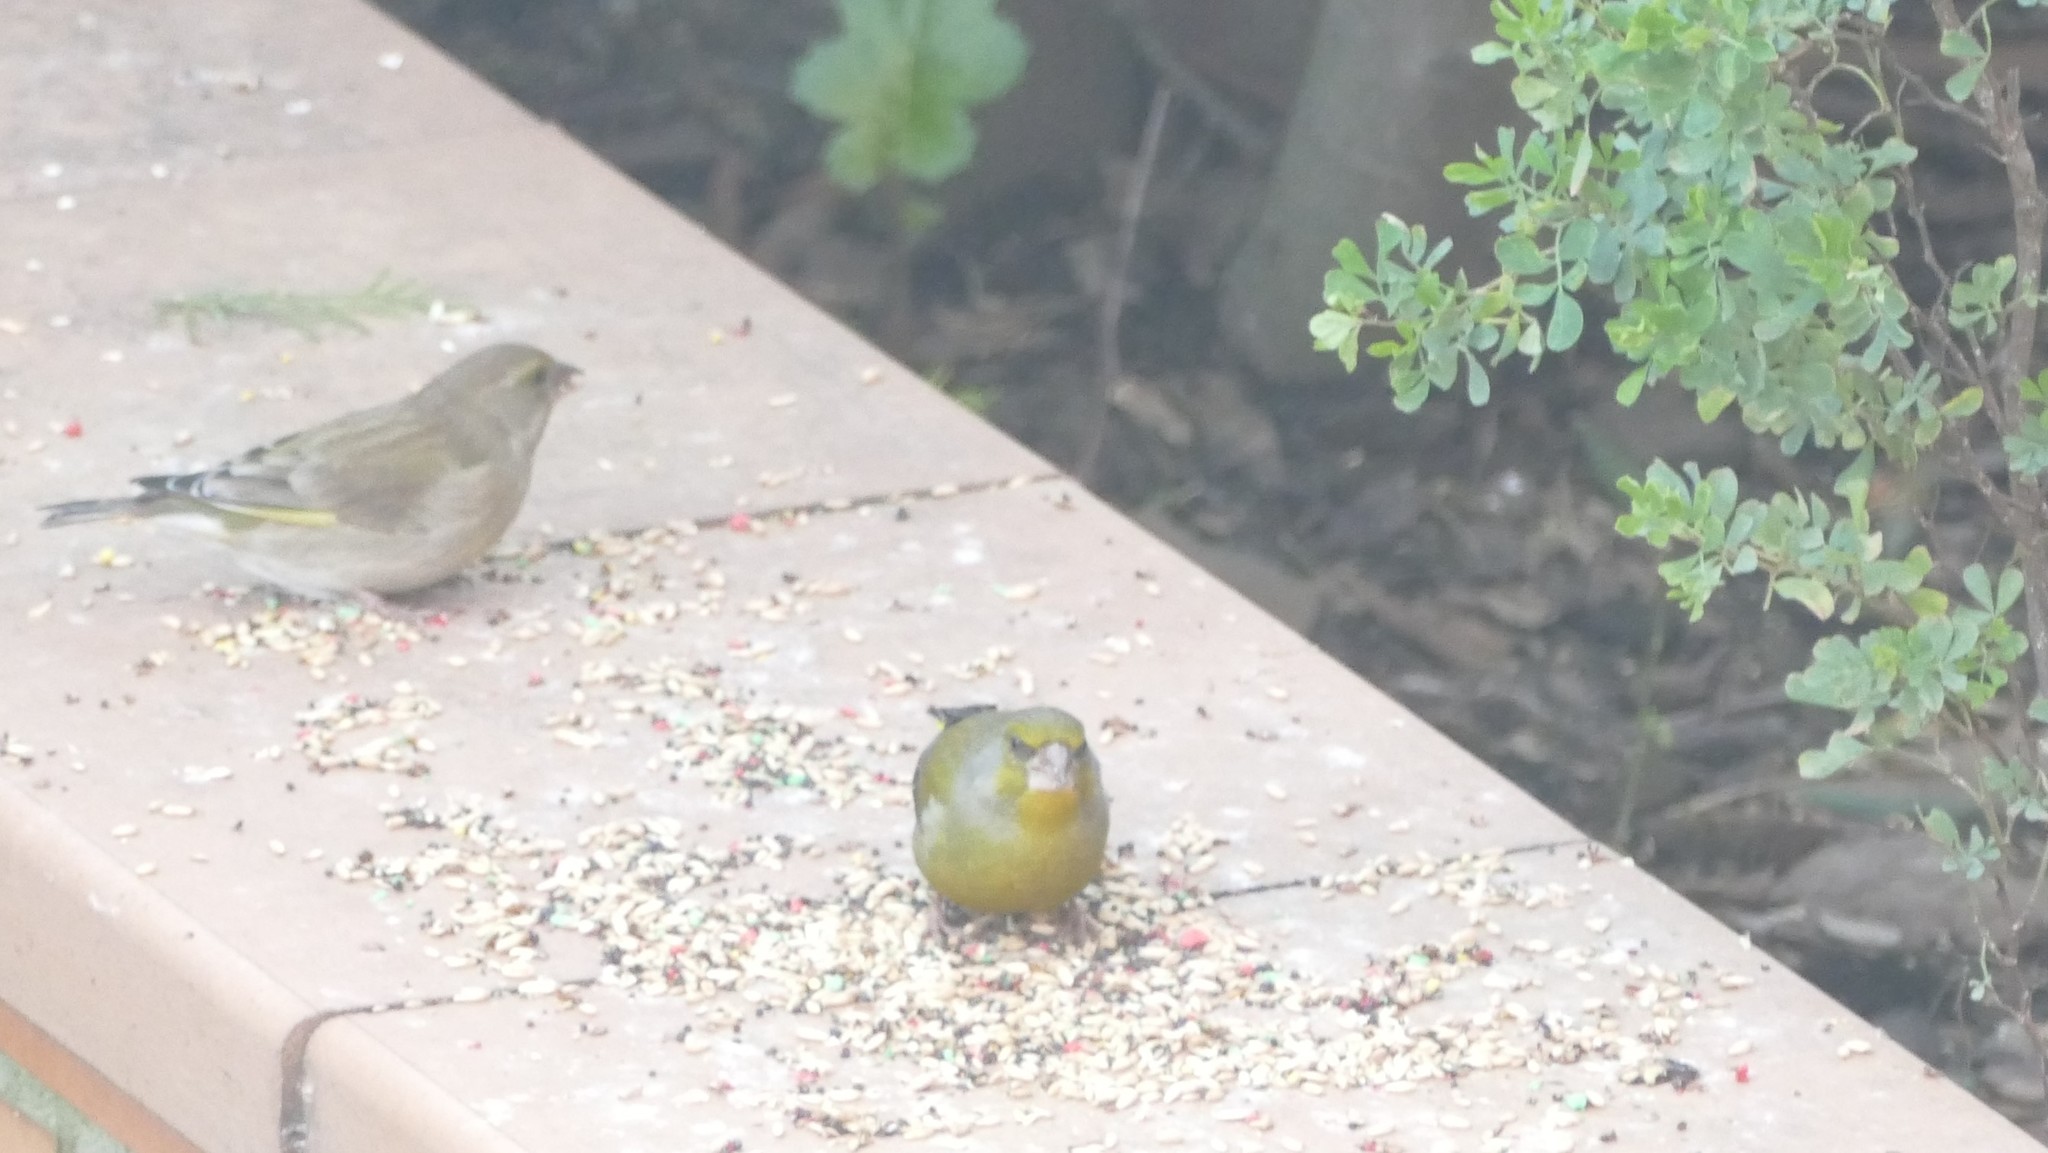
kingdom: Plantae
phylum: Tracheophyta
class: Liliopsida
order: Poales
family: Poaceae
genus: Chloris
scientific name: Chloris chloris
